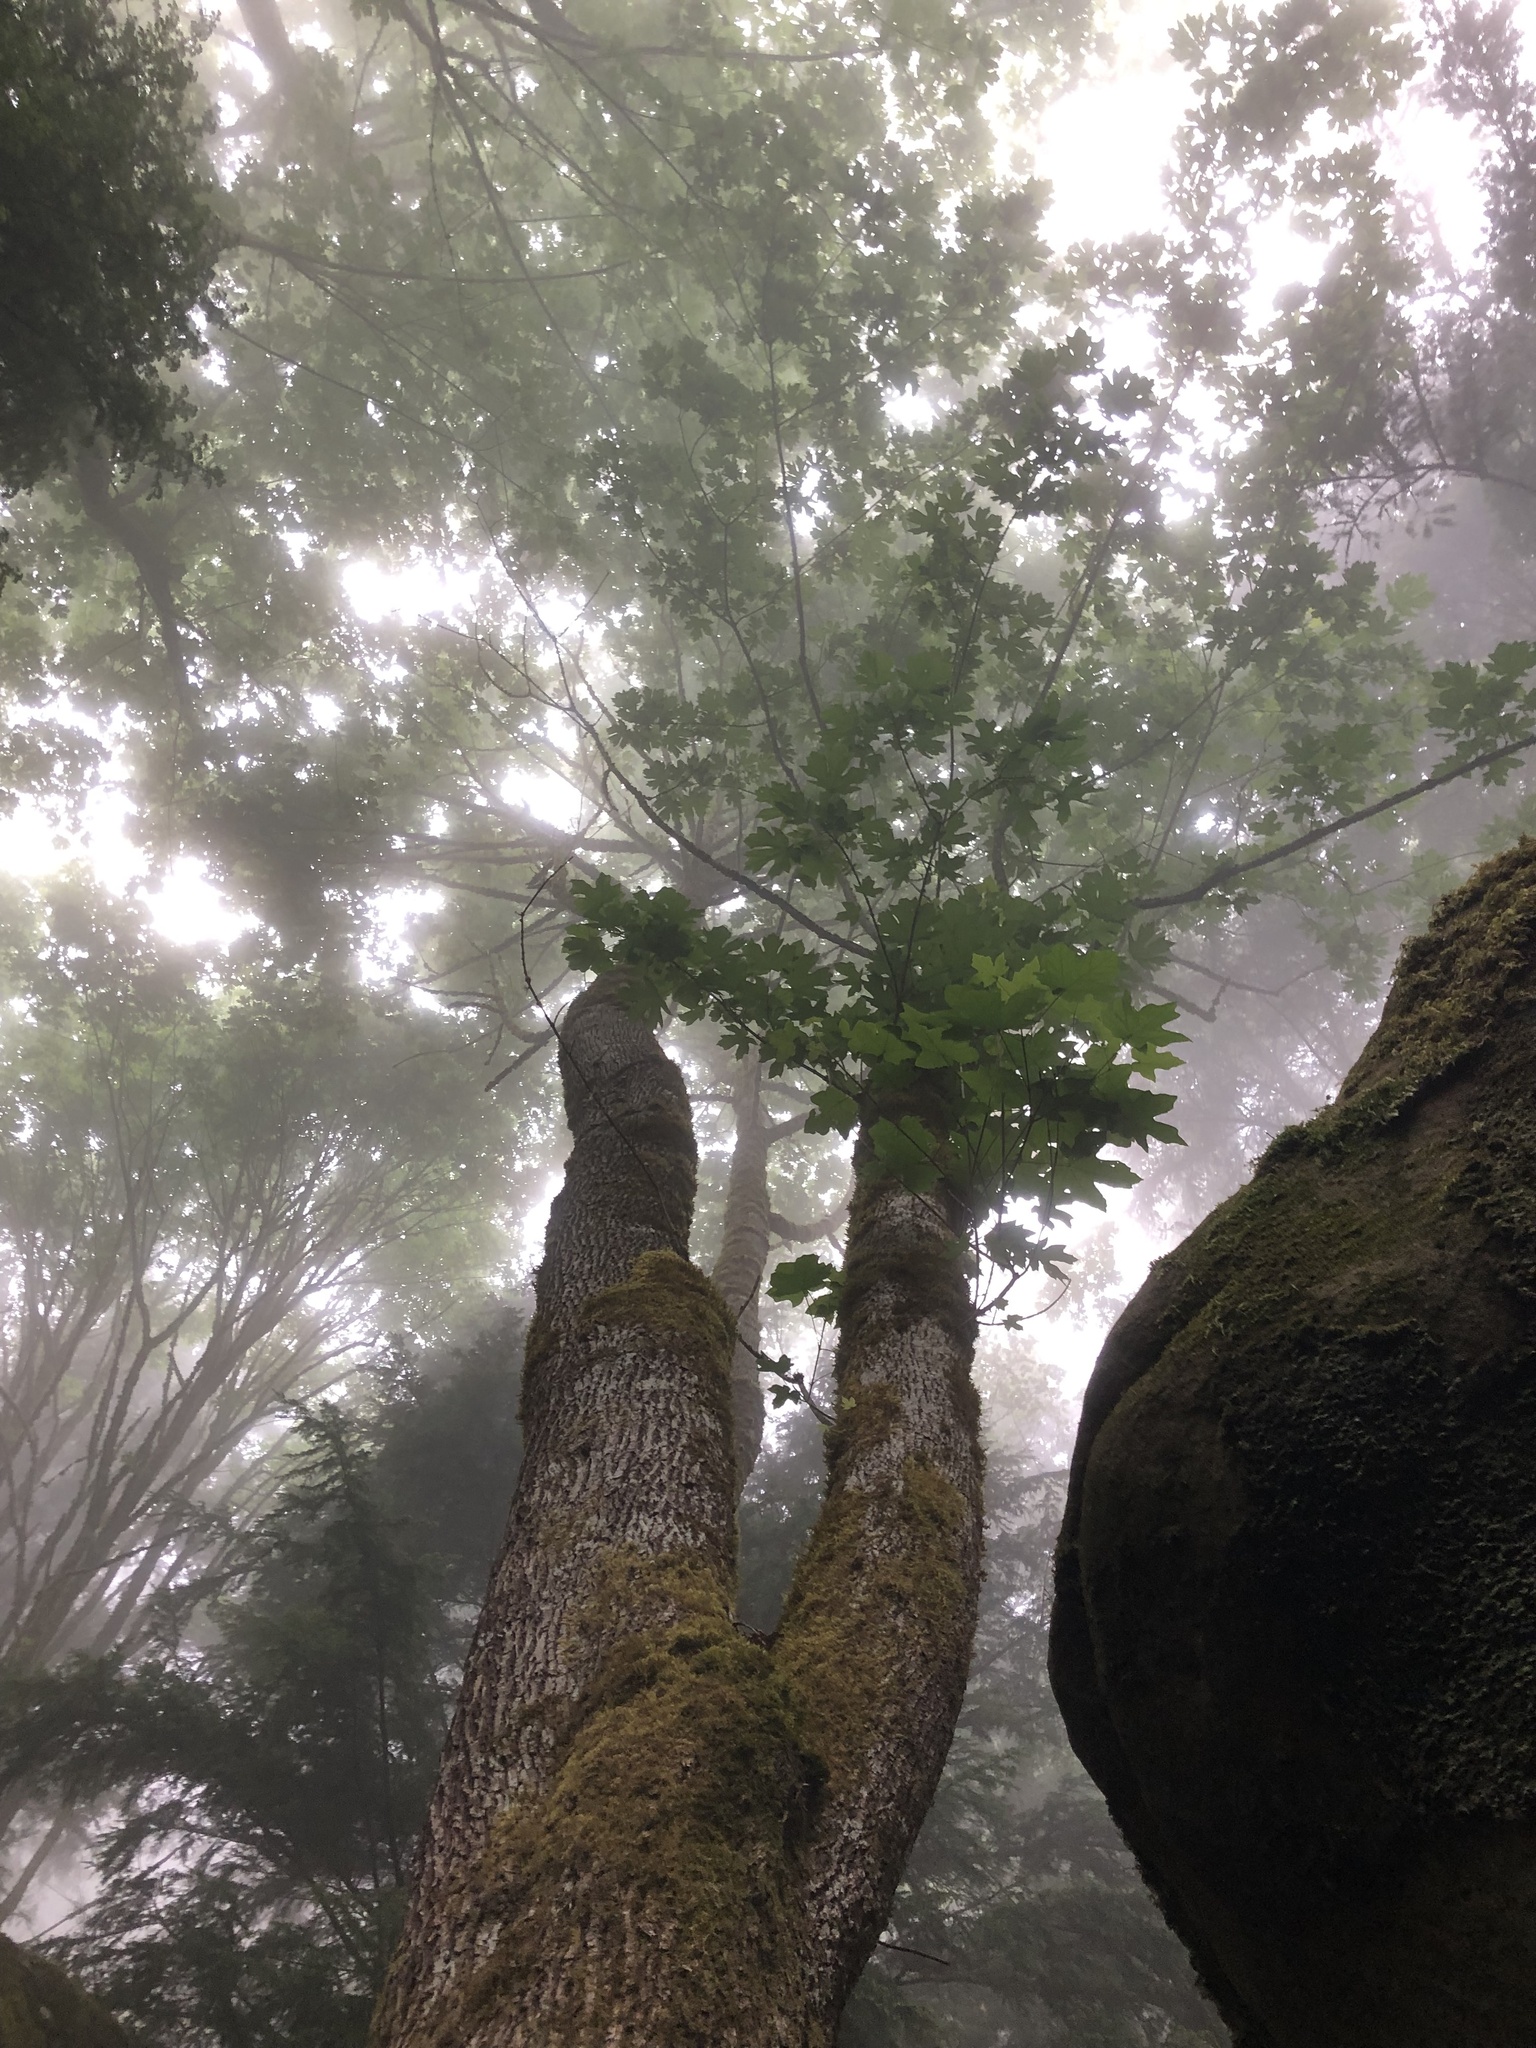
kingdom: Plantae
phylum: Tracheophyta
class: Magnoliopsida
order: Sapindales
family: Sapindaceae
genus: Acer
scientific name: Acer macrophyllum
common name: Oregon maple
